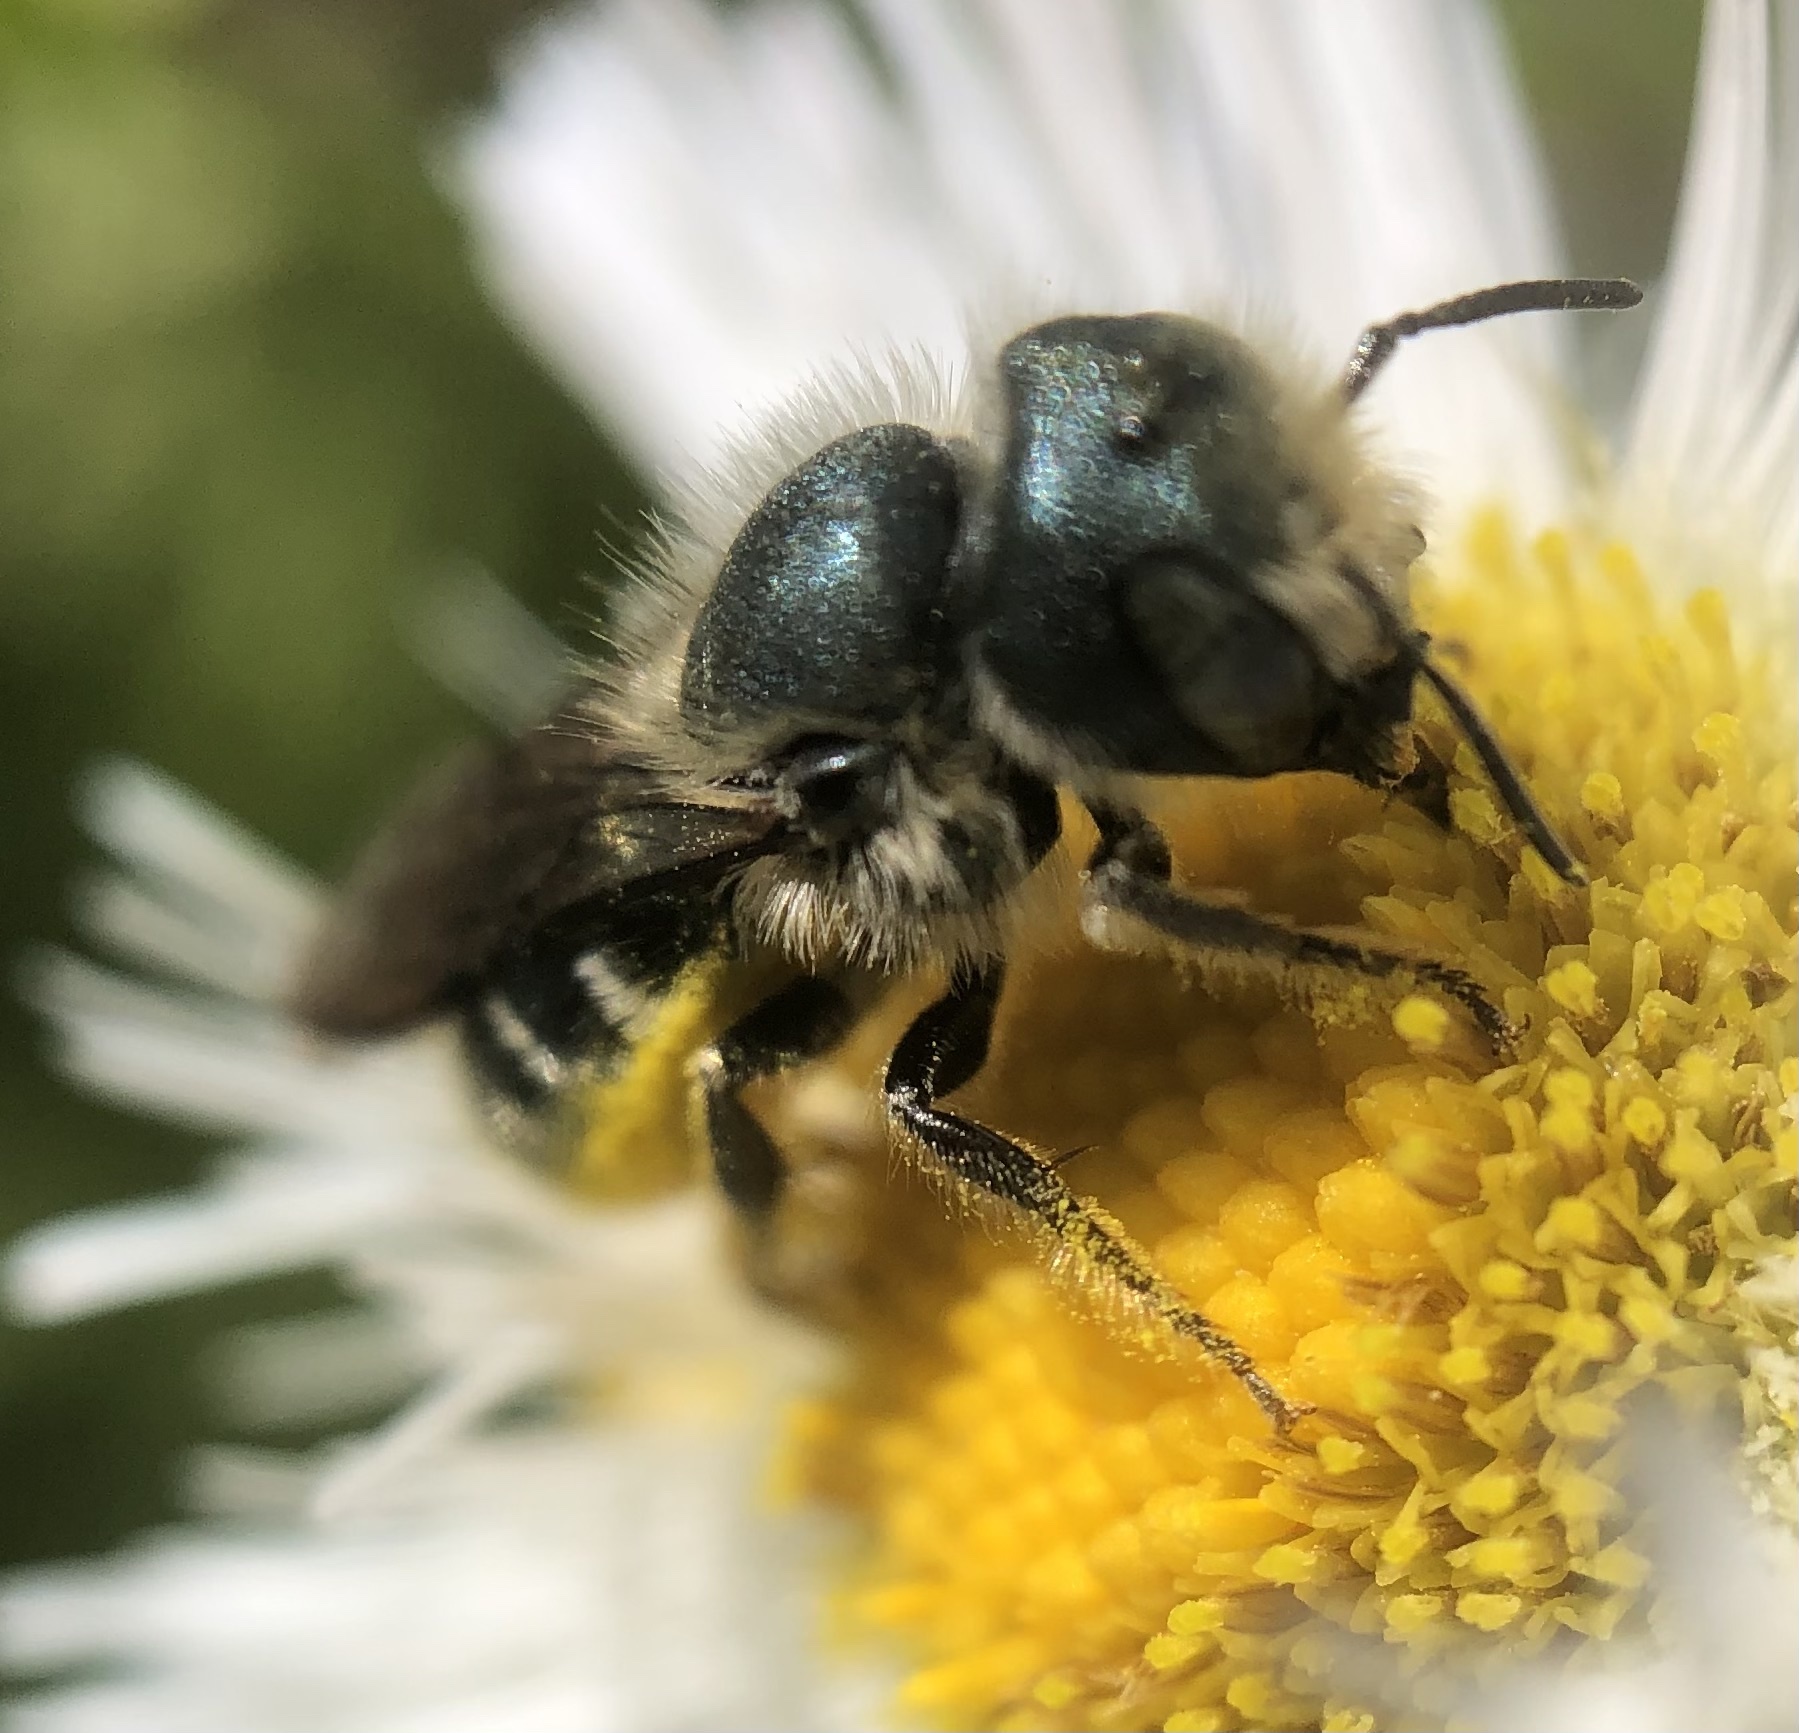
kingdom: Animalia
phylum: Arthropoda
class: Insecta
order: Hymenoptera
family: Megachilidae
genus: Osmia
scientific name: Osmia georgica
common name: Georgia mason
